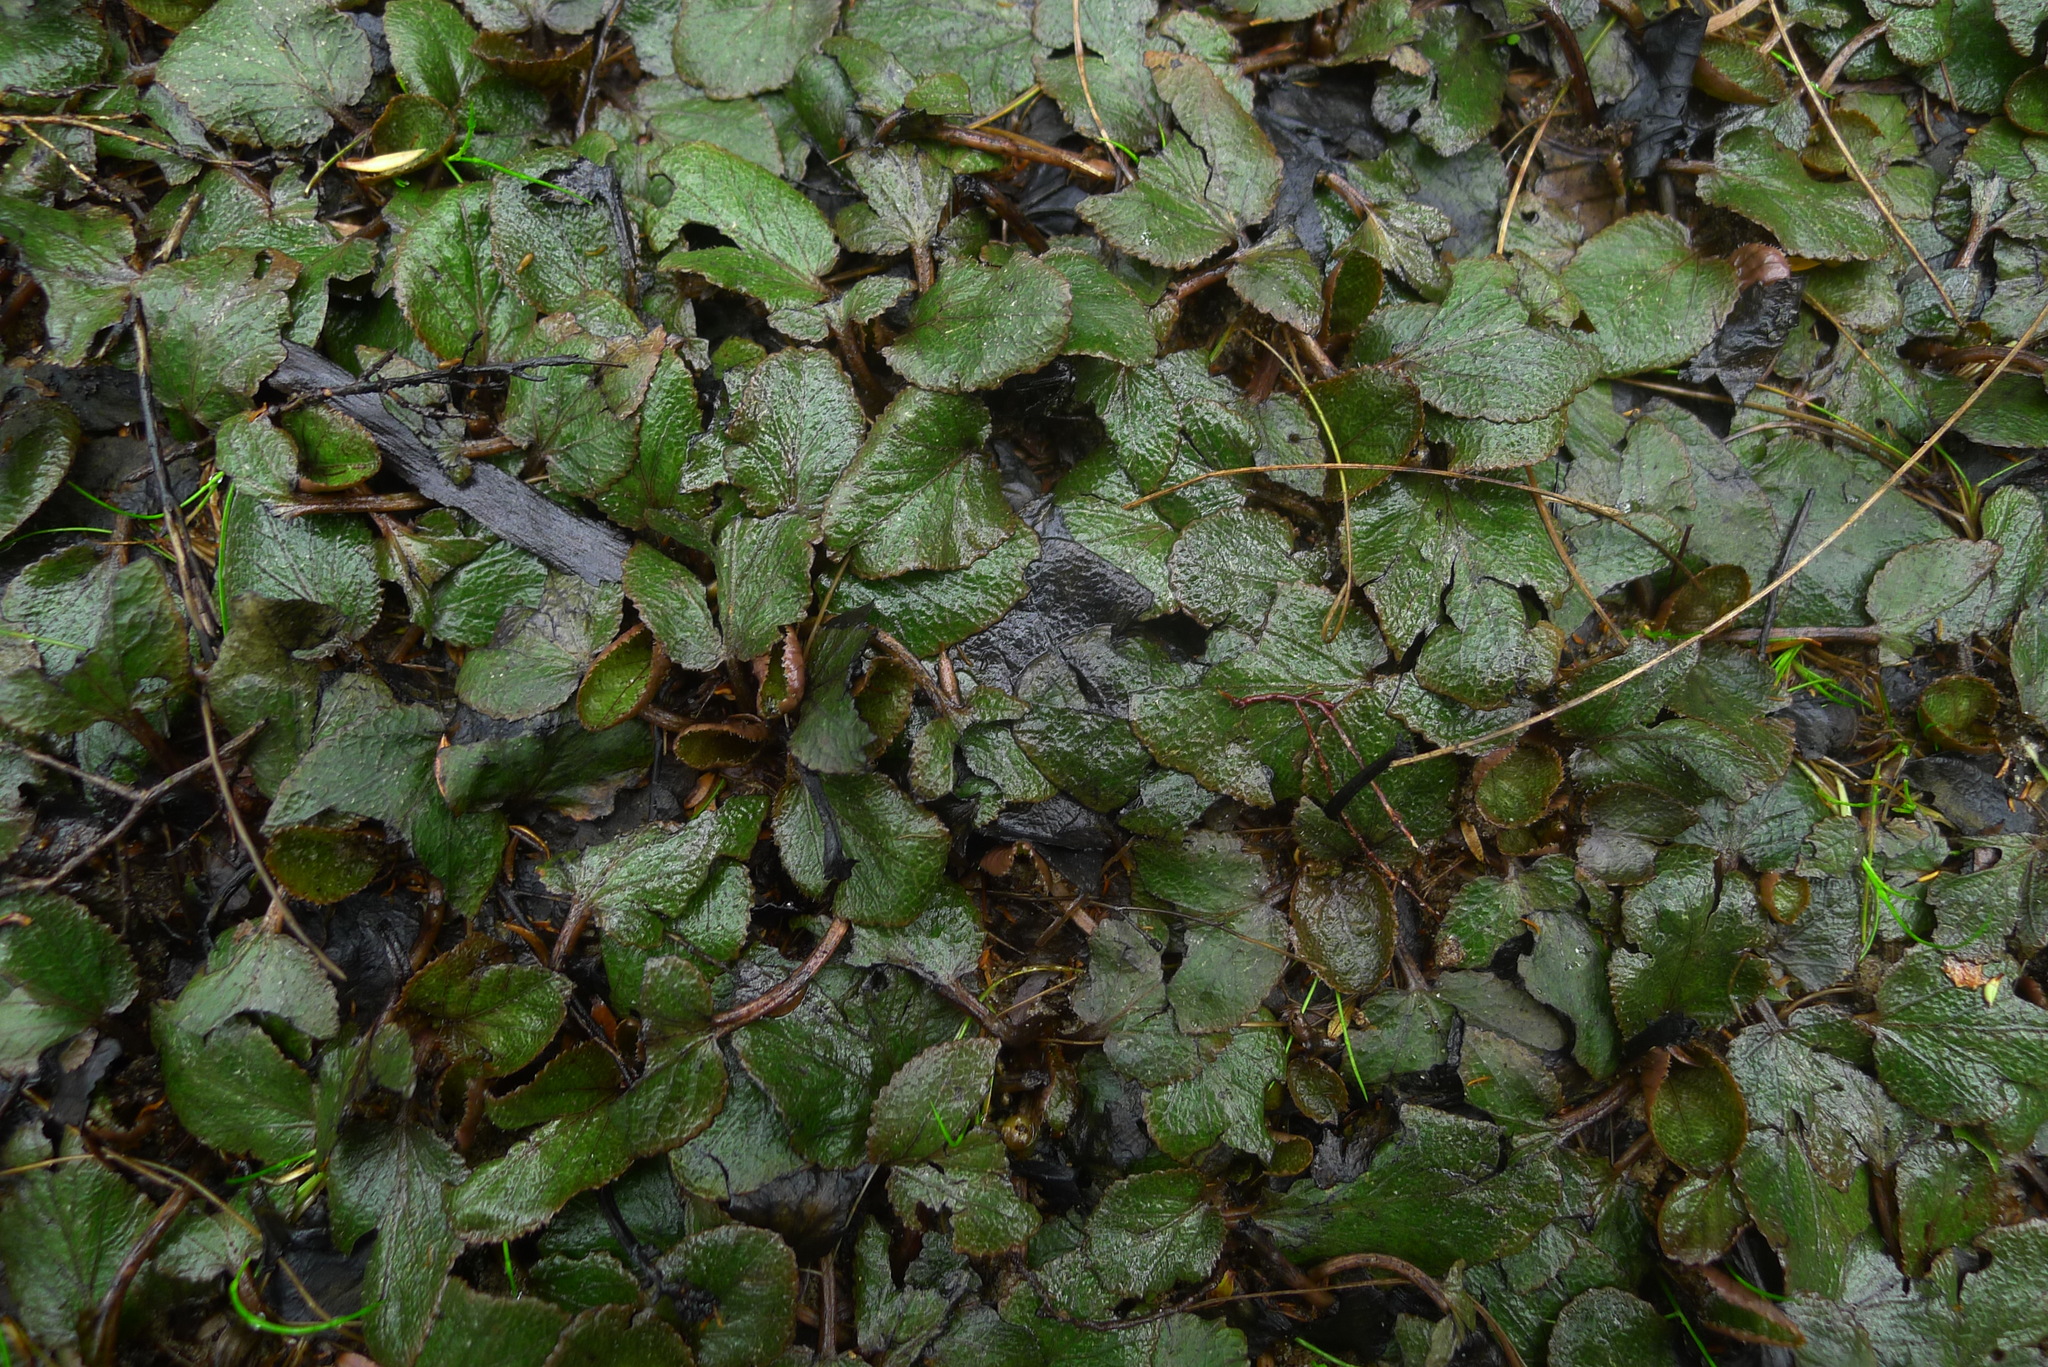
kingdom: Plantae
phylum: Tracheophyta
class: Magnoliopsida
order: Gunnerales
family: Gunneraceae
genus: Gunnera
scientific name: Gunnera prorepens
